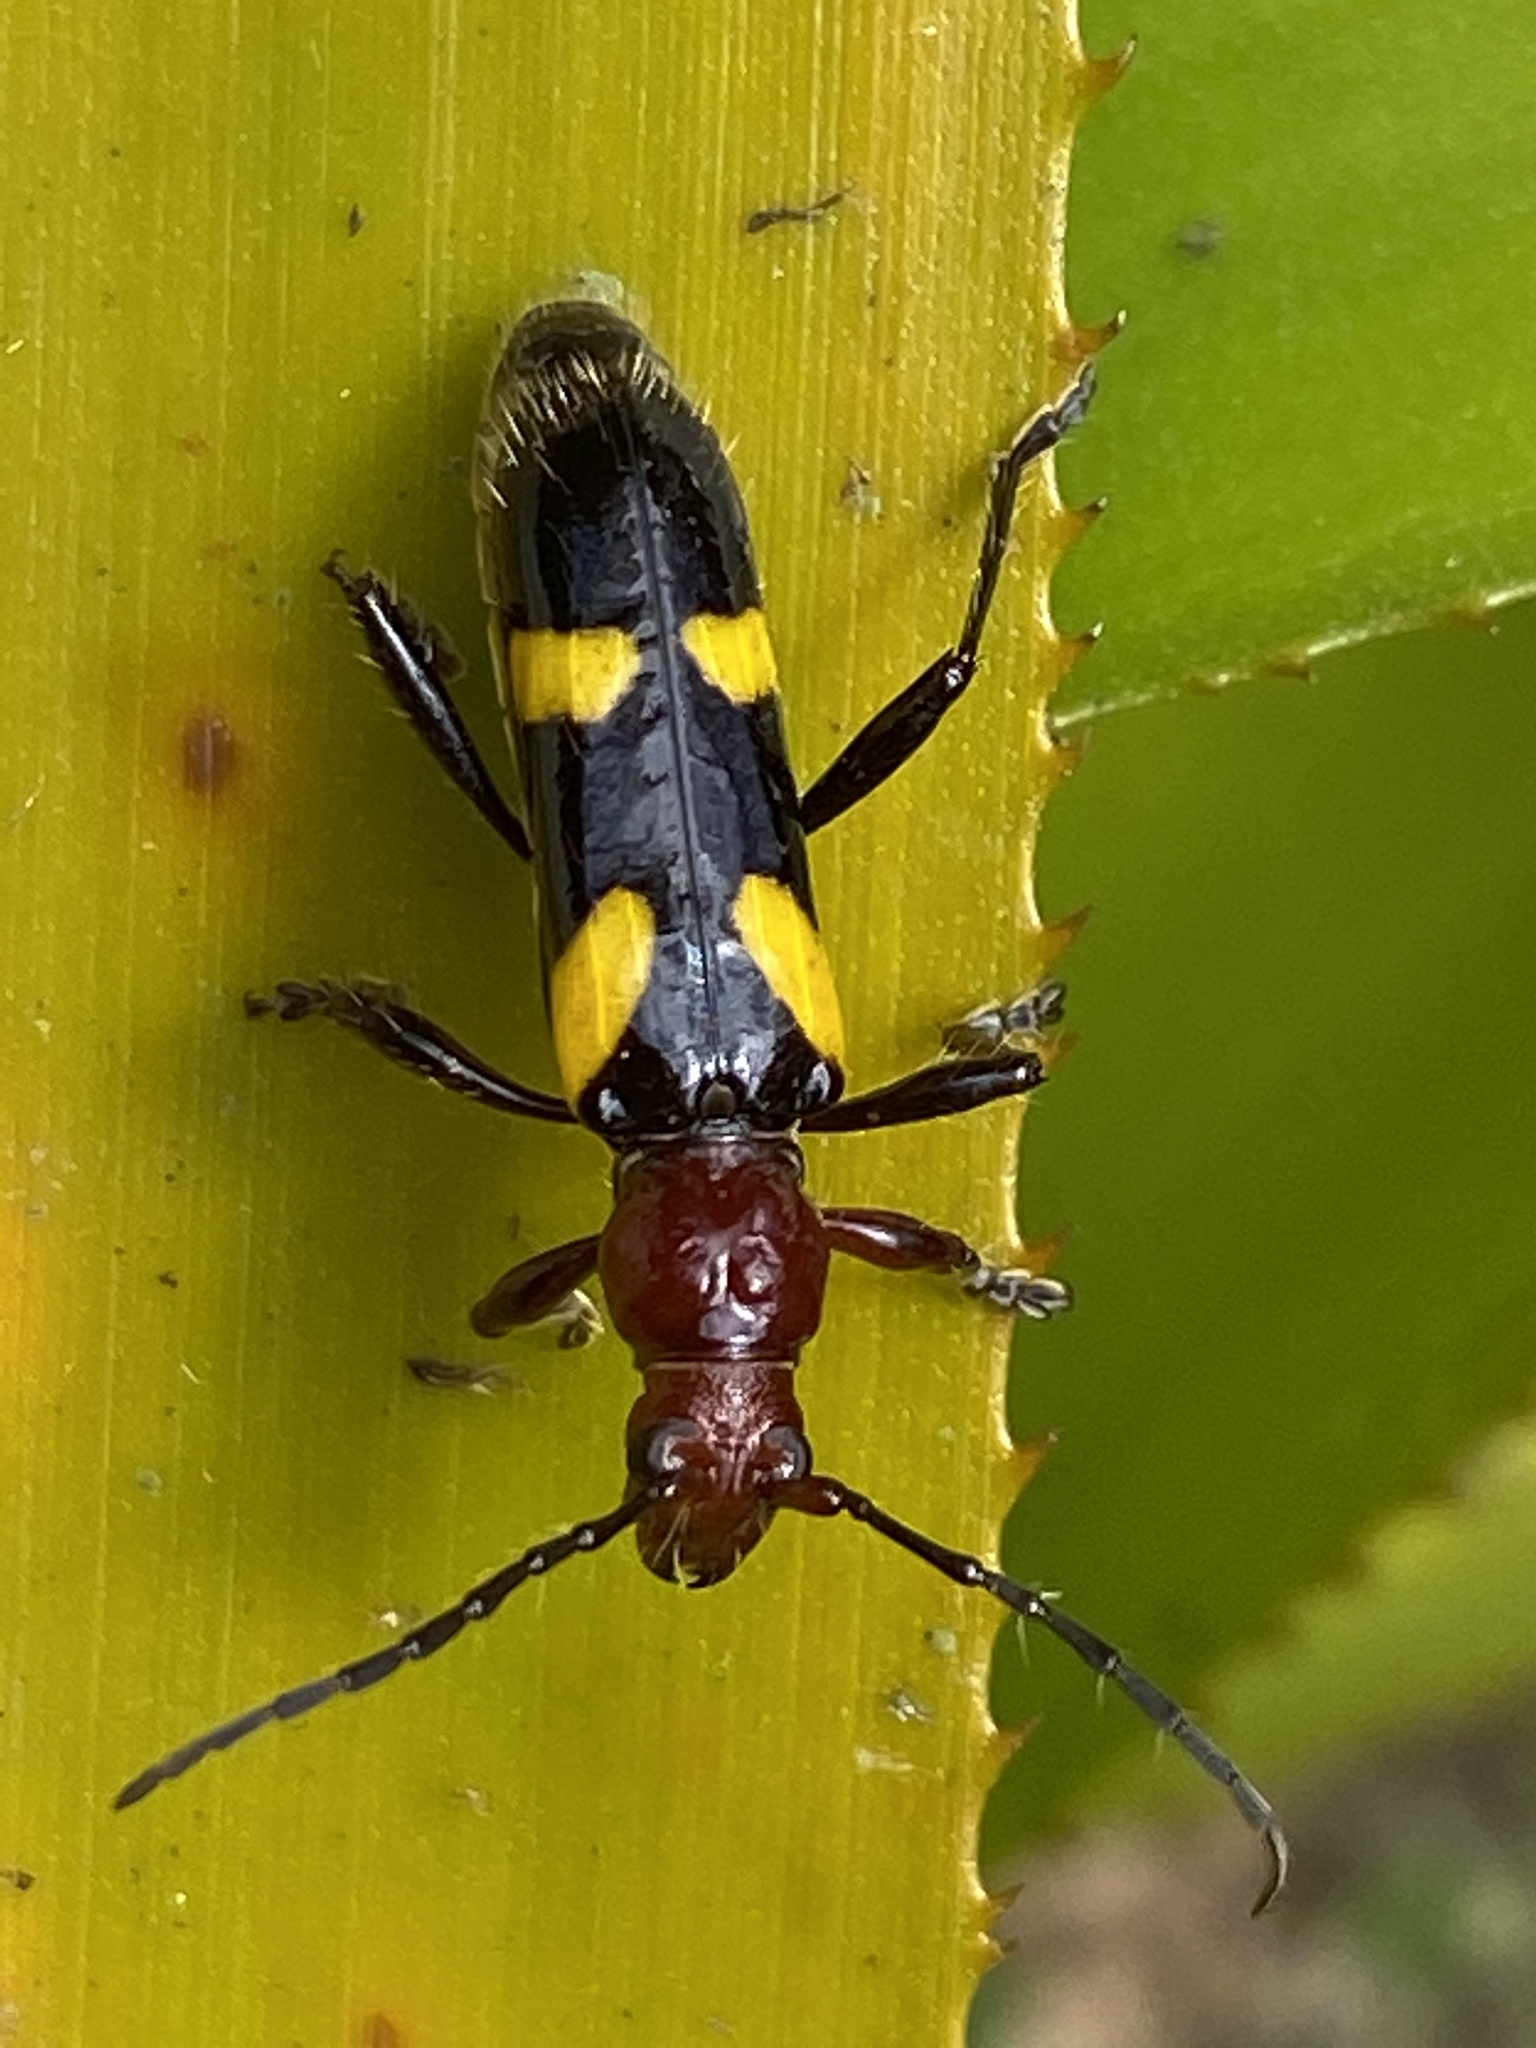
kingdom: Animalia
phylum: Arthropoda
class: Insecta
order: Coleoptera
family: Cerambycidae
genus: Stenygra
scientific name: Stenygra conspicua
